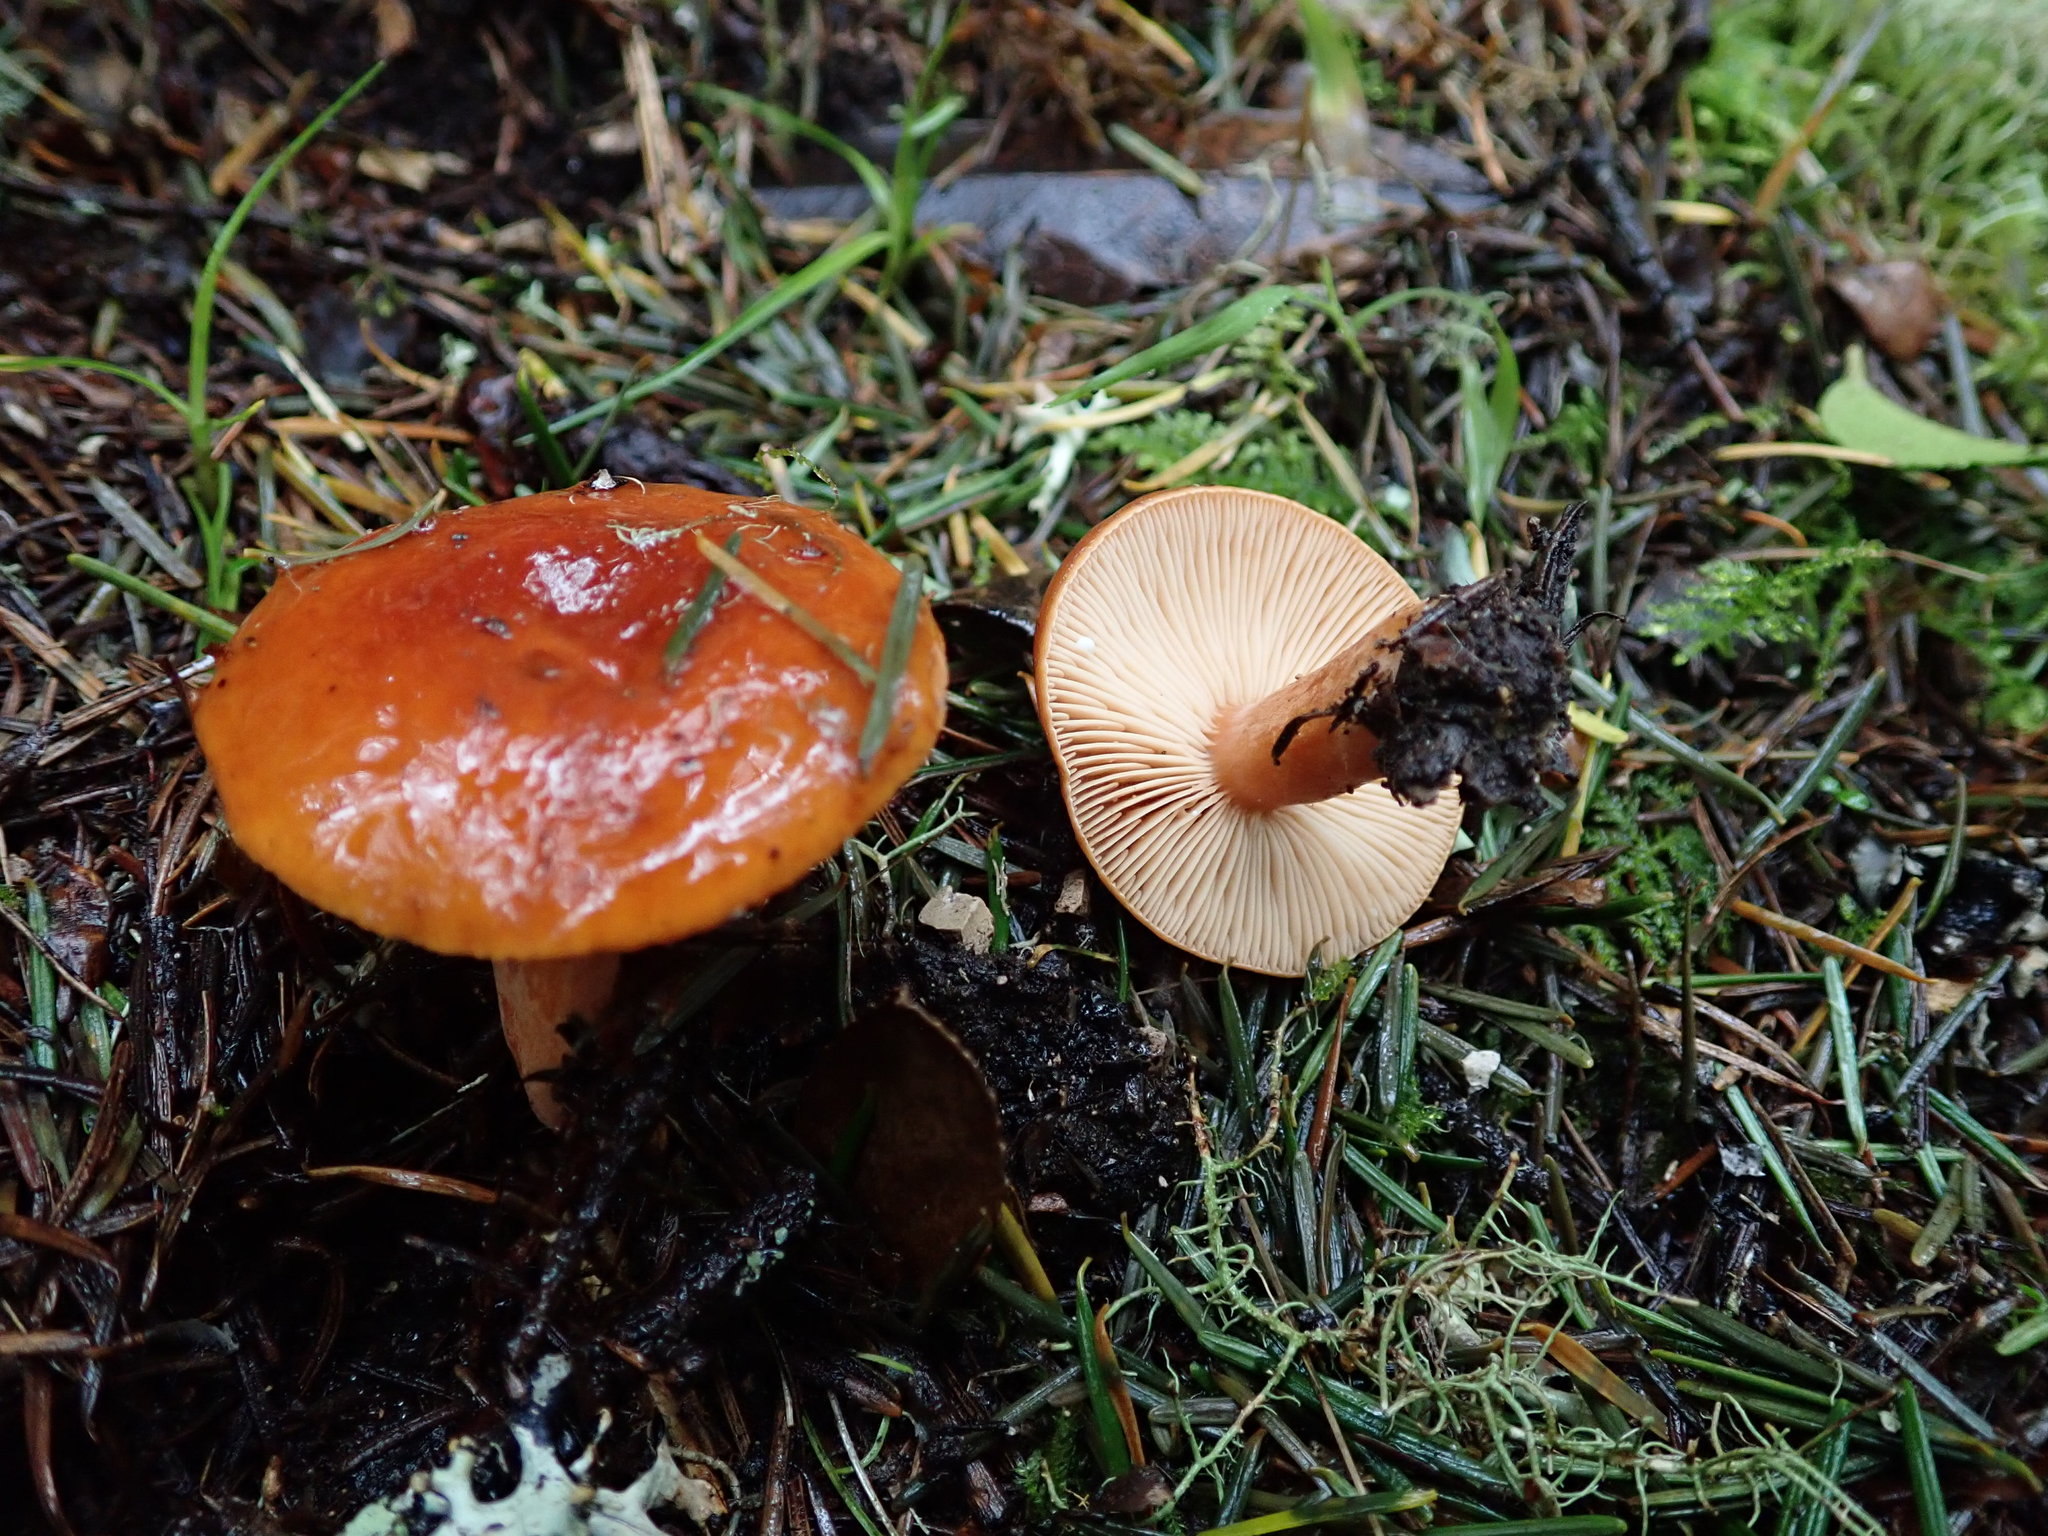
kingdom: Fungi
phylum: Basidiomycota
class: Agaricomycetes
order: Russulales
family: Russulaceae
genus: Lactarius
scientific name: Lactarius subflammeus
